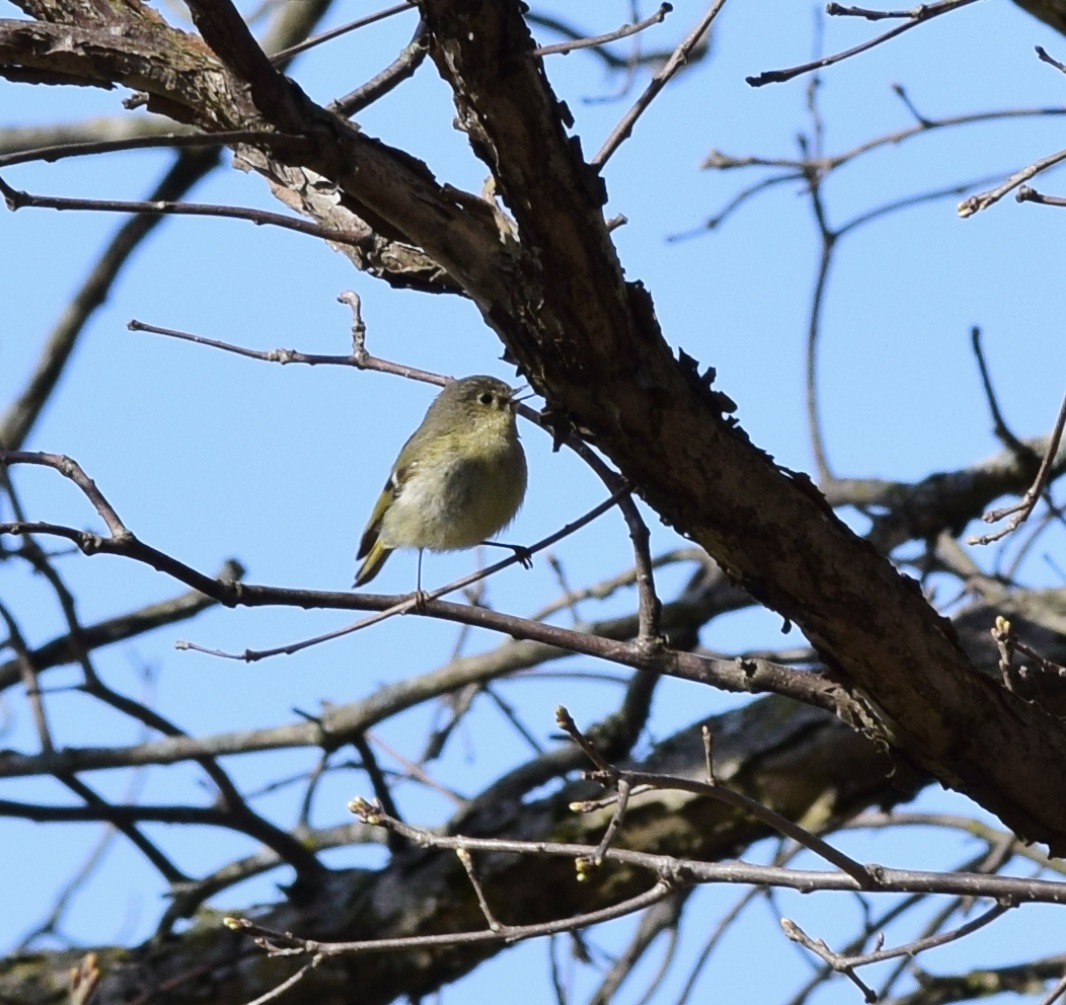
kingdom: Animalia
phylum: Chordata
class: Aves
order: Passeriformes
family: Regulidae
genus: Regulus
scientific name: Regulus calendula
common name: Ruby-crowned kinglet
